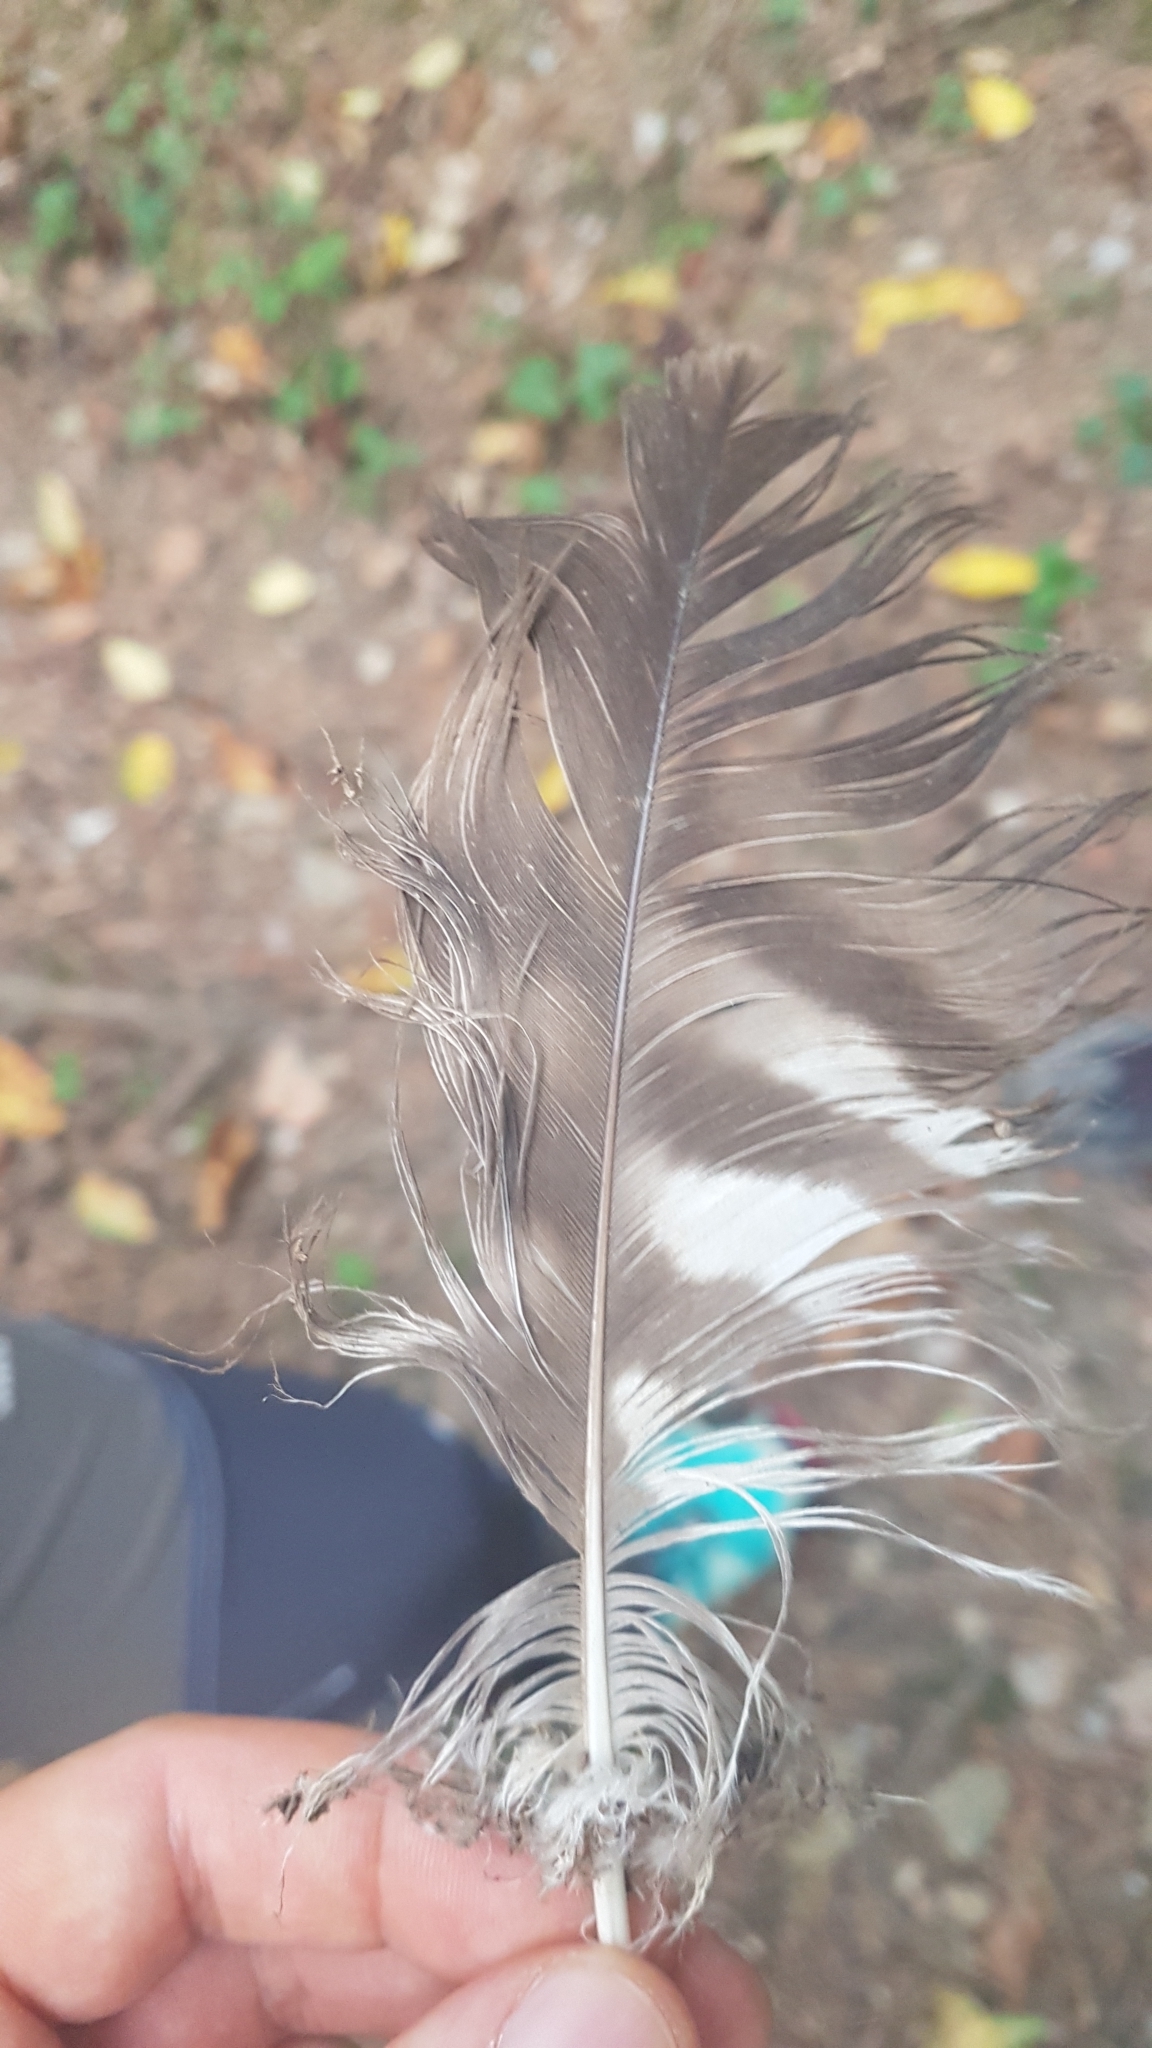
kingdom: Animalia
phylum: Chordata
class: Aves
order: Accipitriformes
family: Accipitridae
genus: Buteo
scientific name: Buteo buteo
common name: Common buzzard
